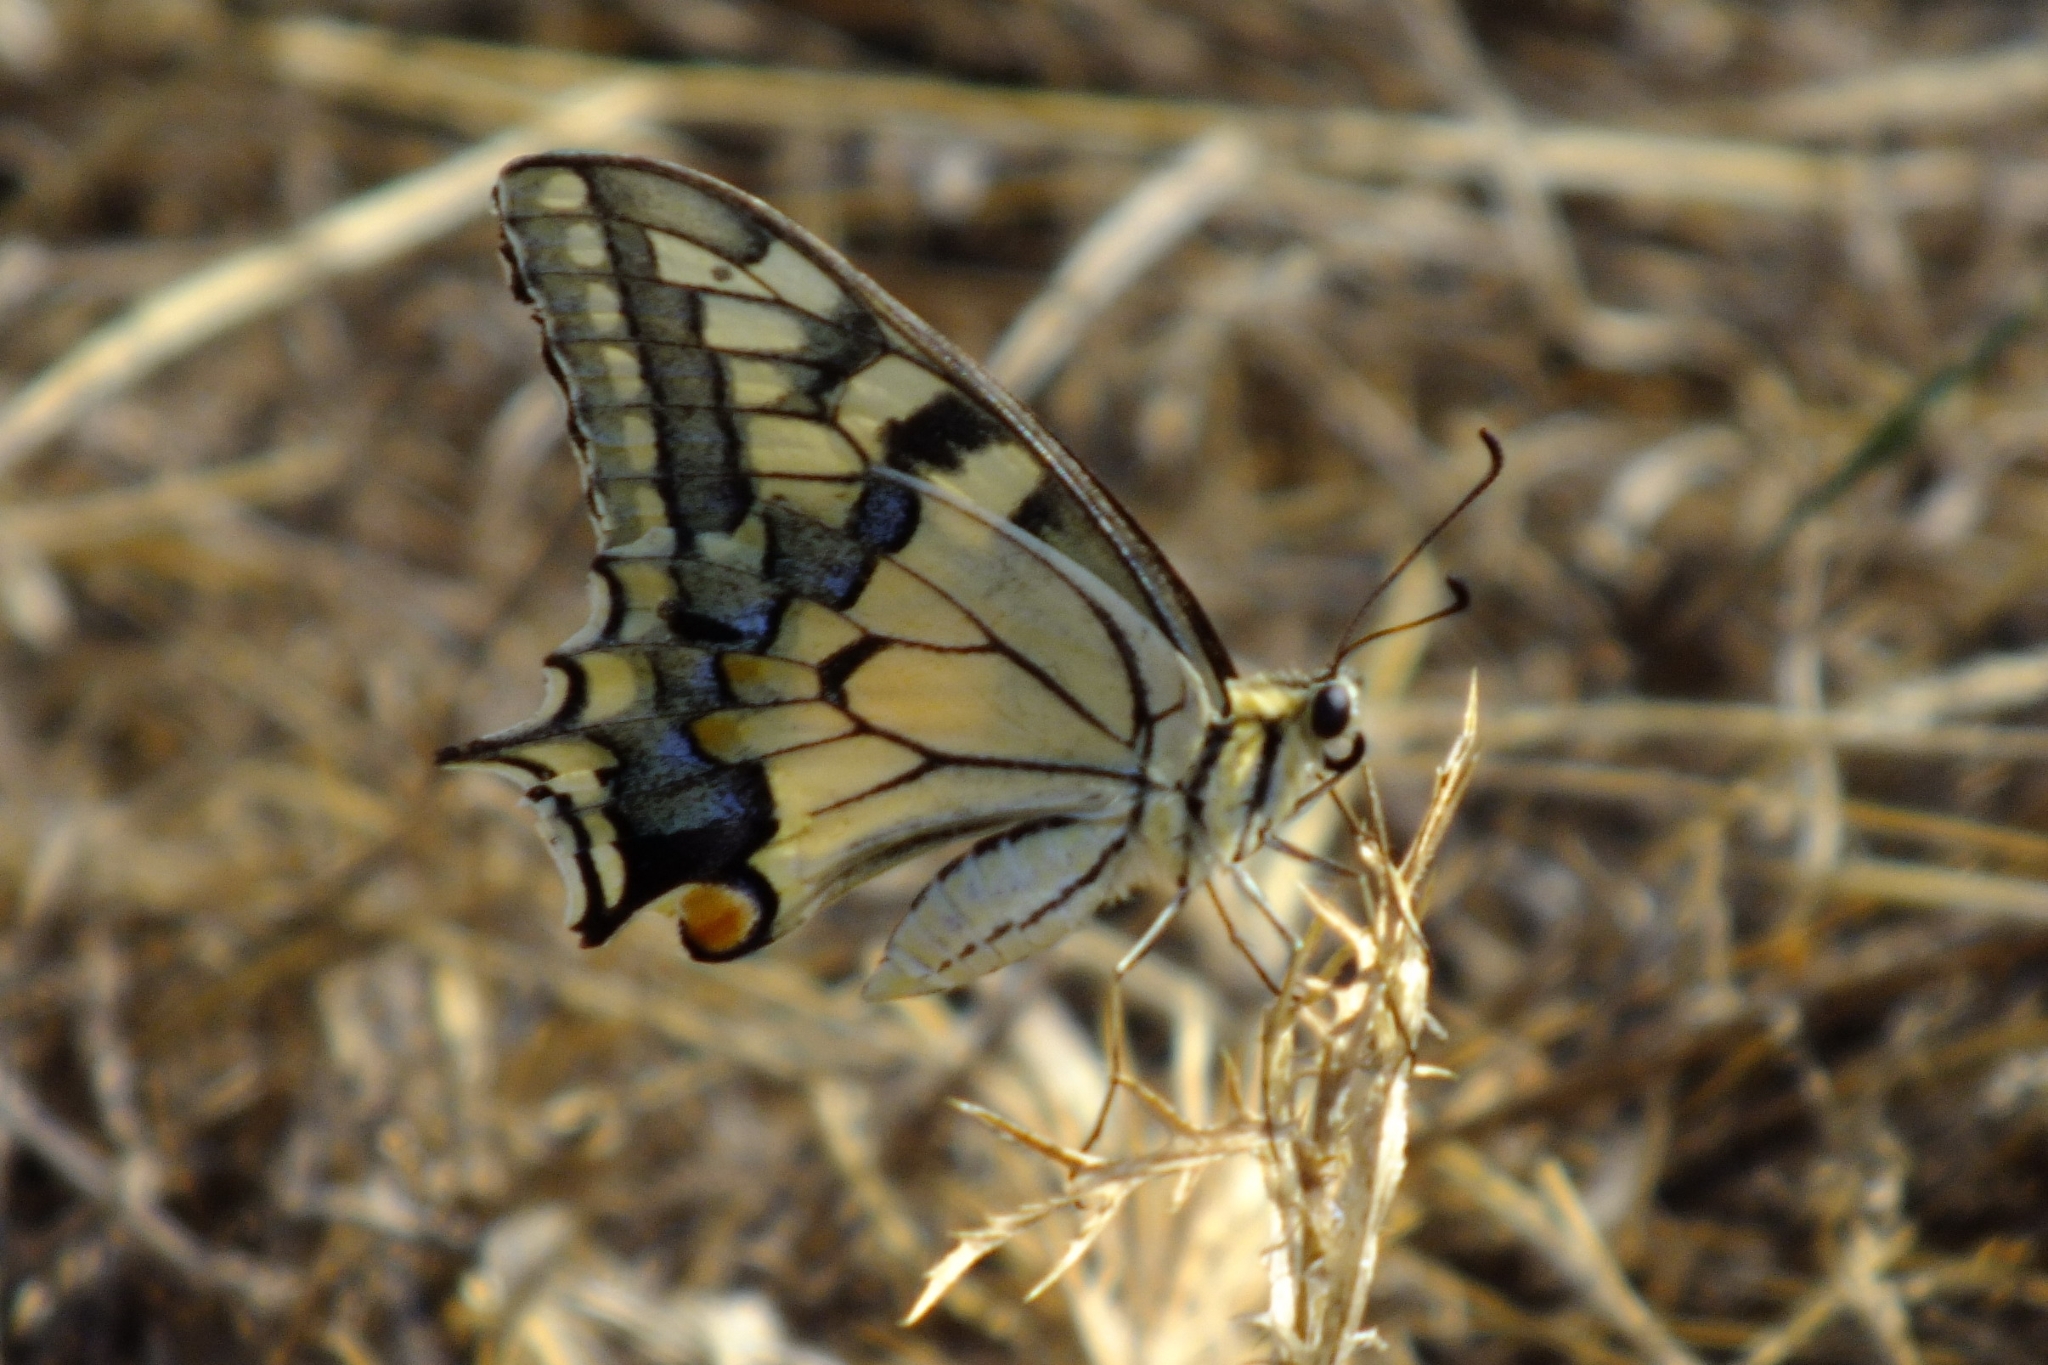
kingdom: Animalia
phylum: Arthropoda
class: Insecta
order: Lepidoptera
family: Papilionidae
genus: Papilio
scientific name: Papilio machaon
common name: Swallowtail
